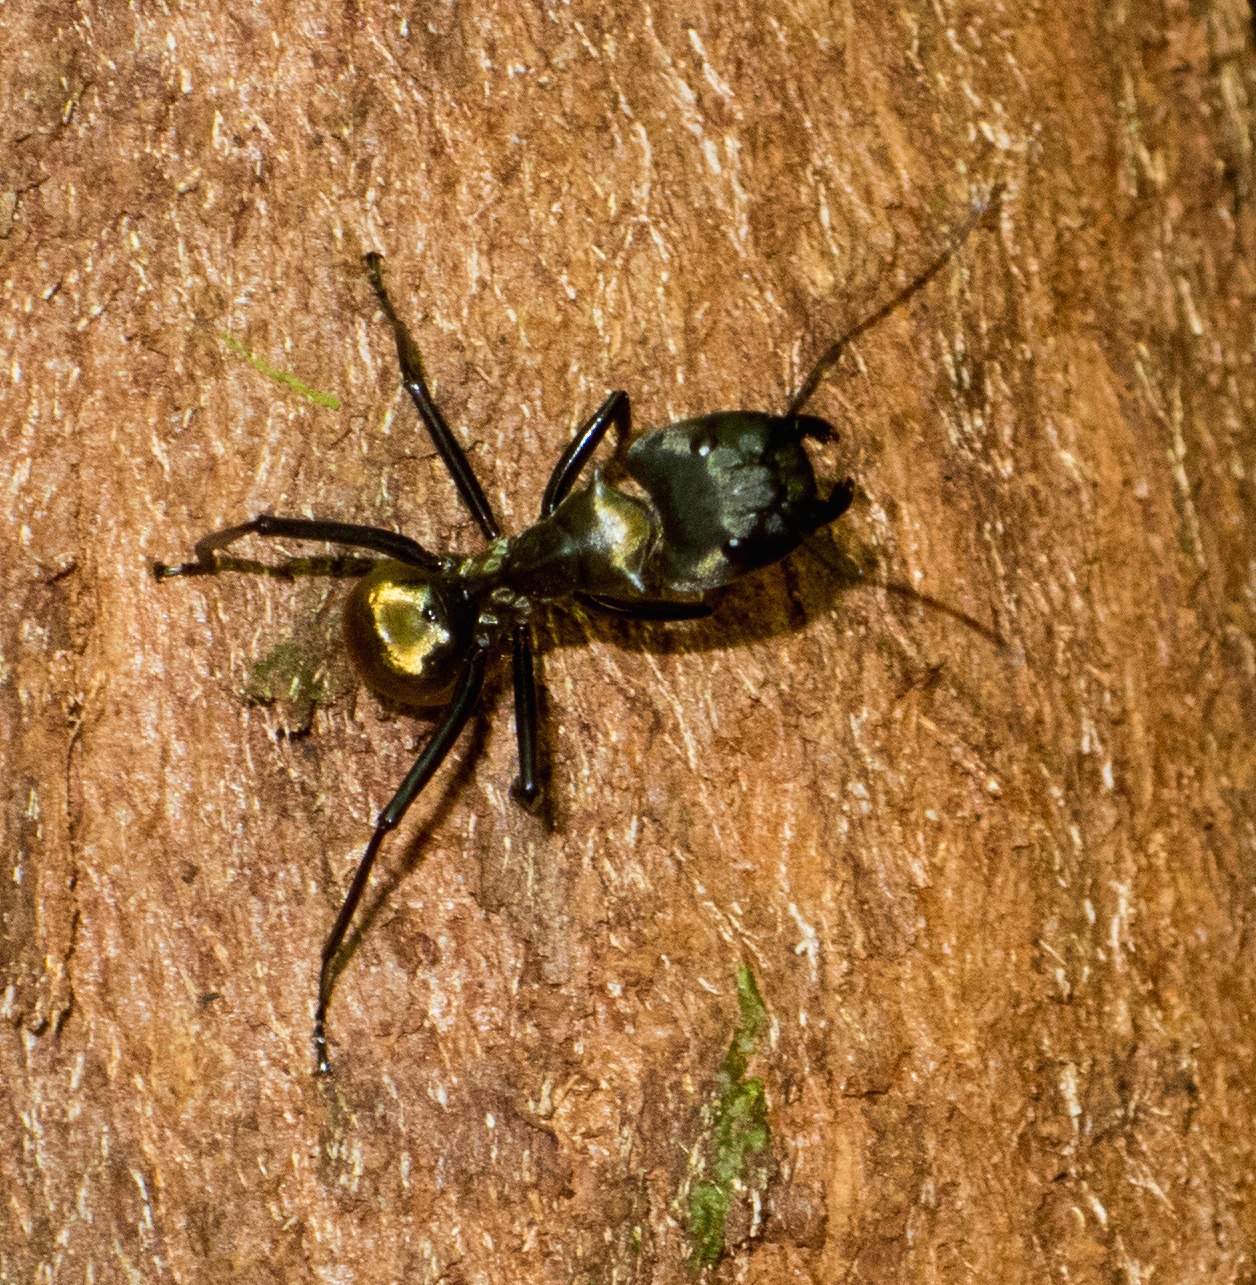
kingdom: Animalia
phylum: Arthropoda
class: Insecta
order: Hymenoptera
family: Formicidae
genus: Camponotus
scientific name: Camponotus sericeiventris
